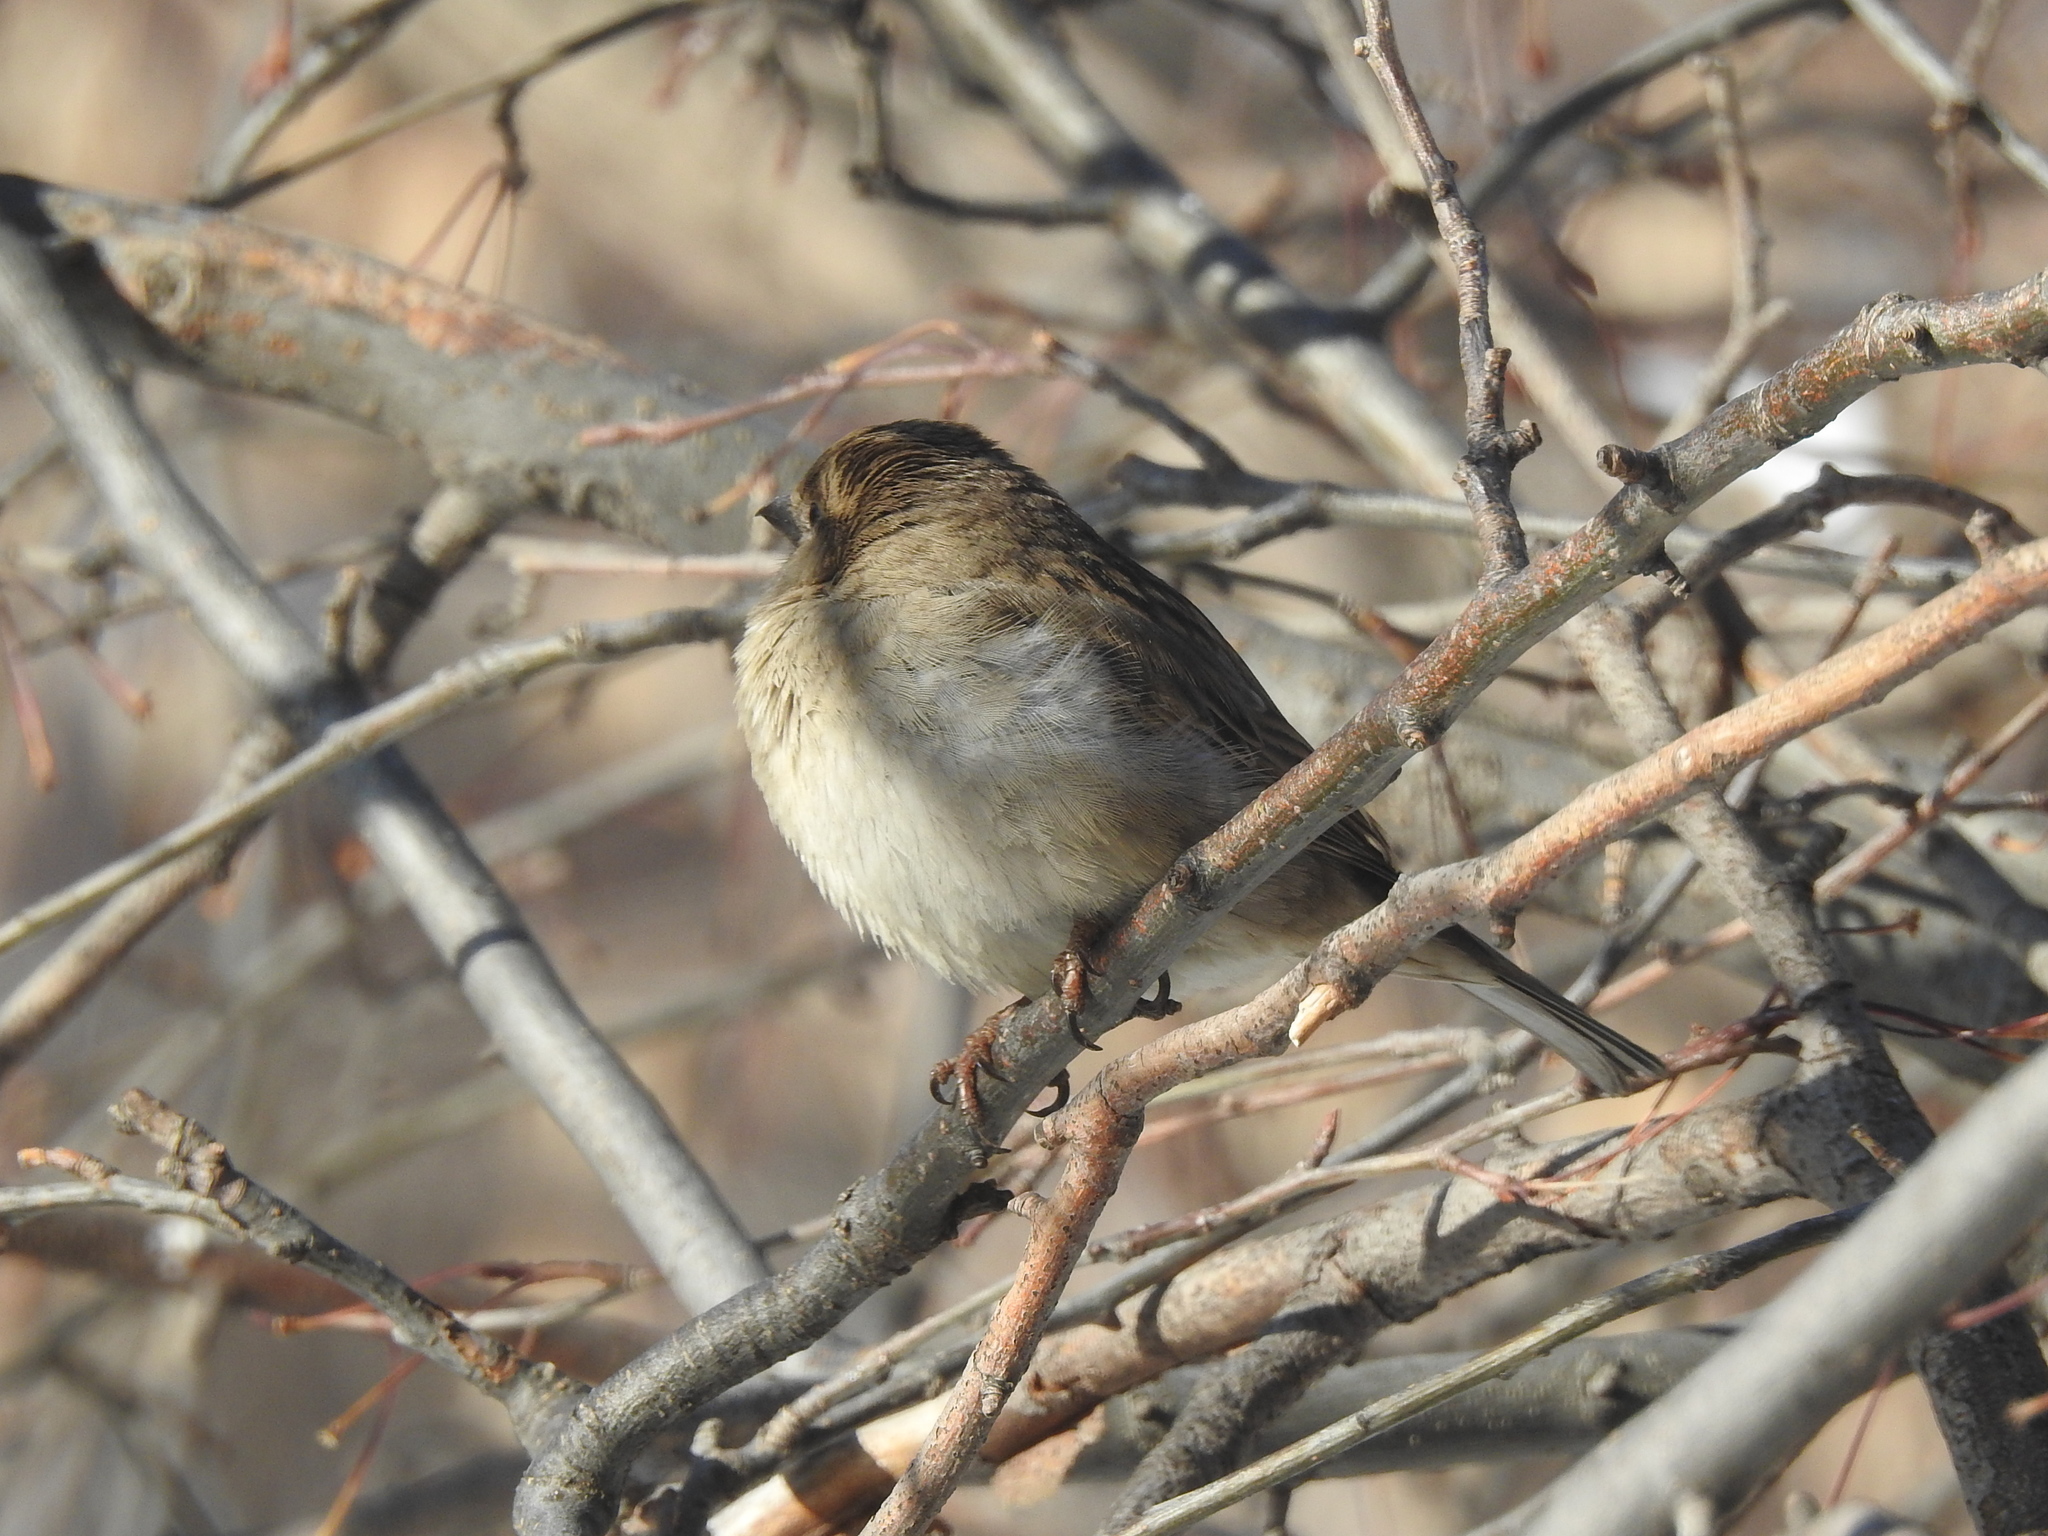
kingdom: Animalia
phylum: Chordata
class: Aves
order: Passeriformes
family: Passeridae
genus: Passer
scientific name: Passer domesticus
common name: House sparrow
